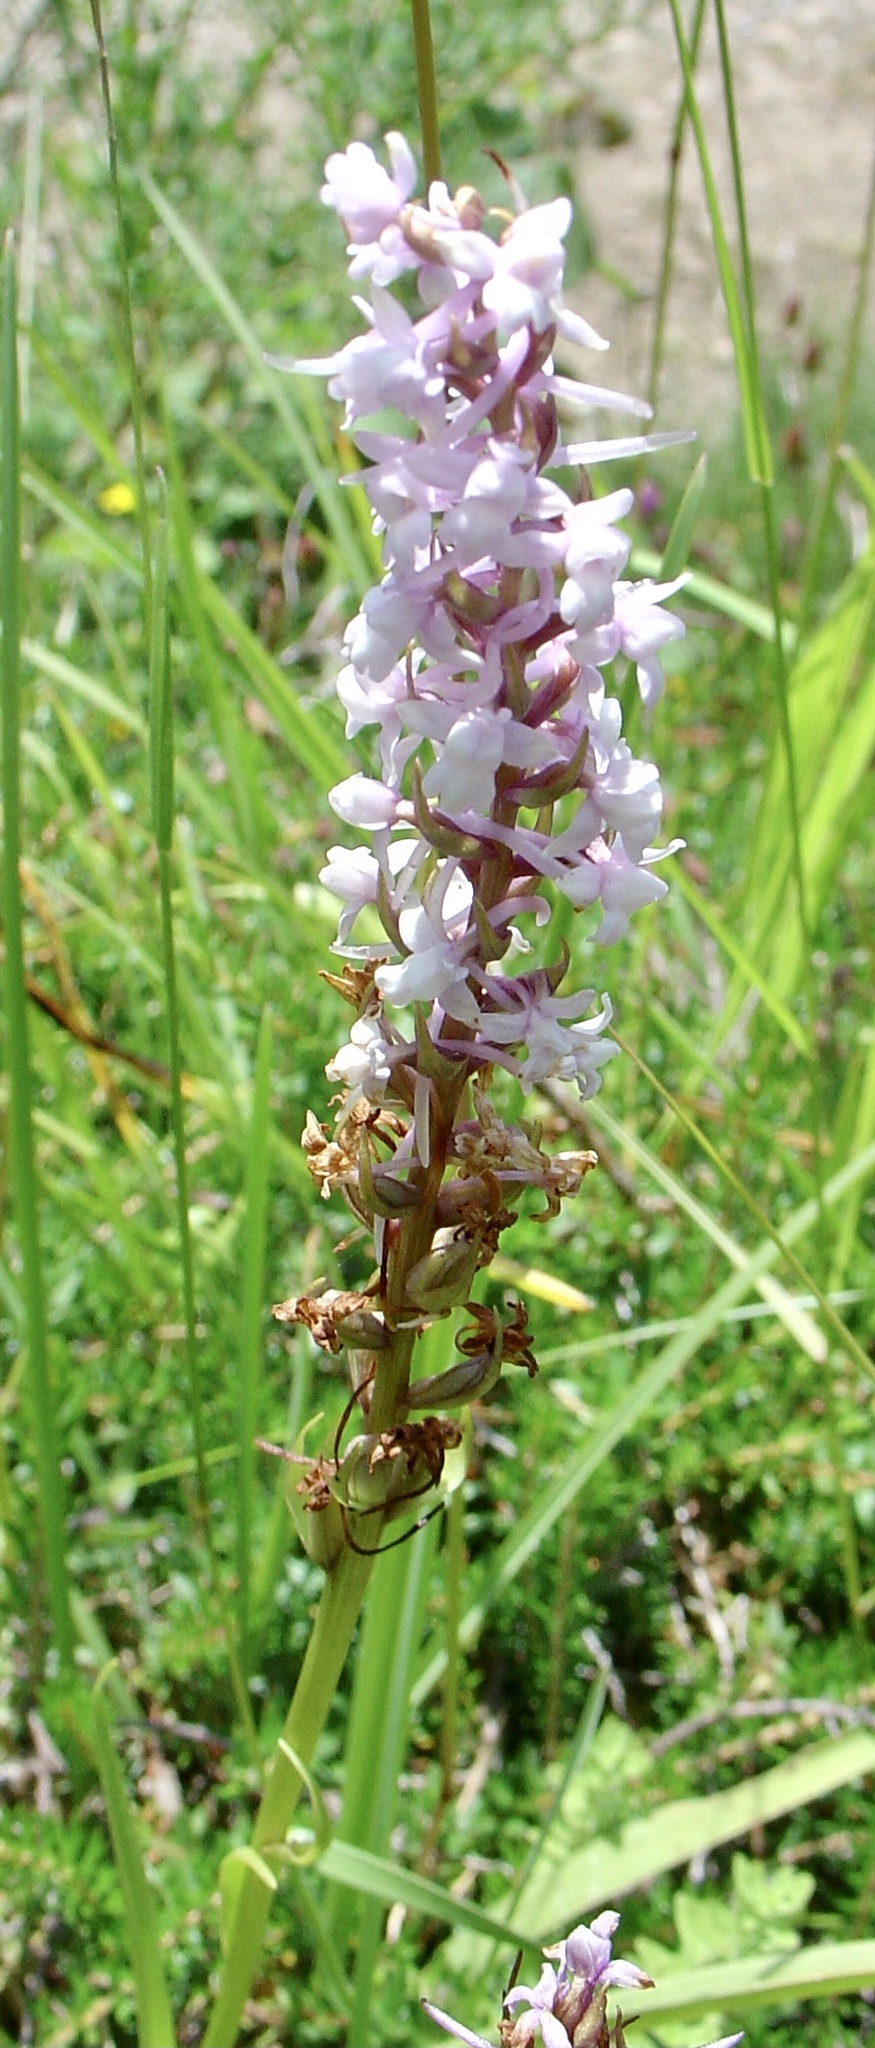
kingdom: Plantae
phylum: Tracheophyta
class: Liliopsida
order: Asparagales
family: Orchidaceae
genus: Gymnadenia
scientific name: Gymnadenia conopsea
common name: Fragrant orchid
